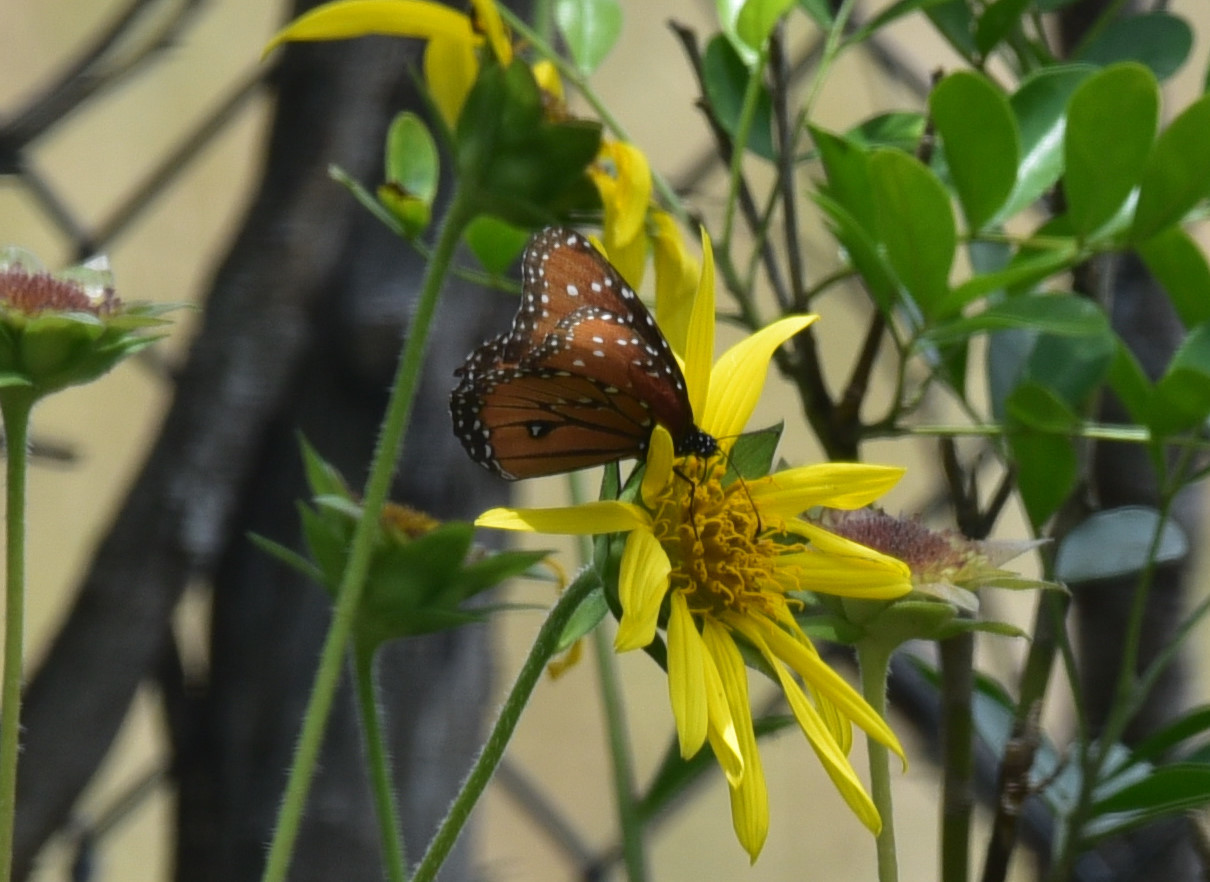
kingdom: Animalia
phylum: Arthropoda
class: Insecta
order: Lepidoptera
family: Nymphalidae
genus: Danaus
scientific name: Danaus gilippus
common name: Queen
